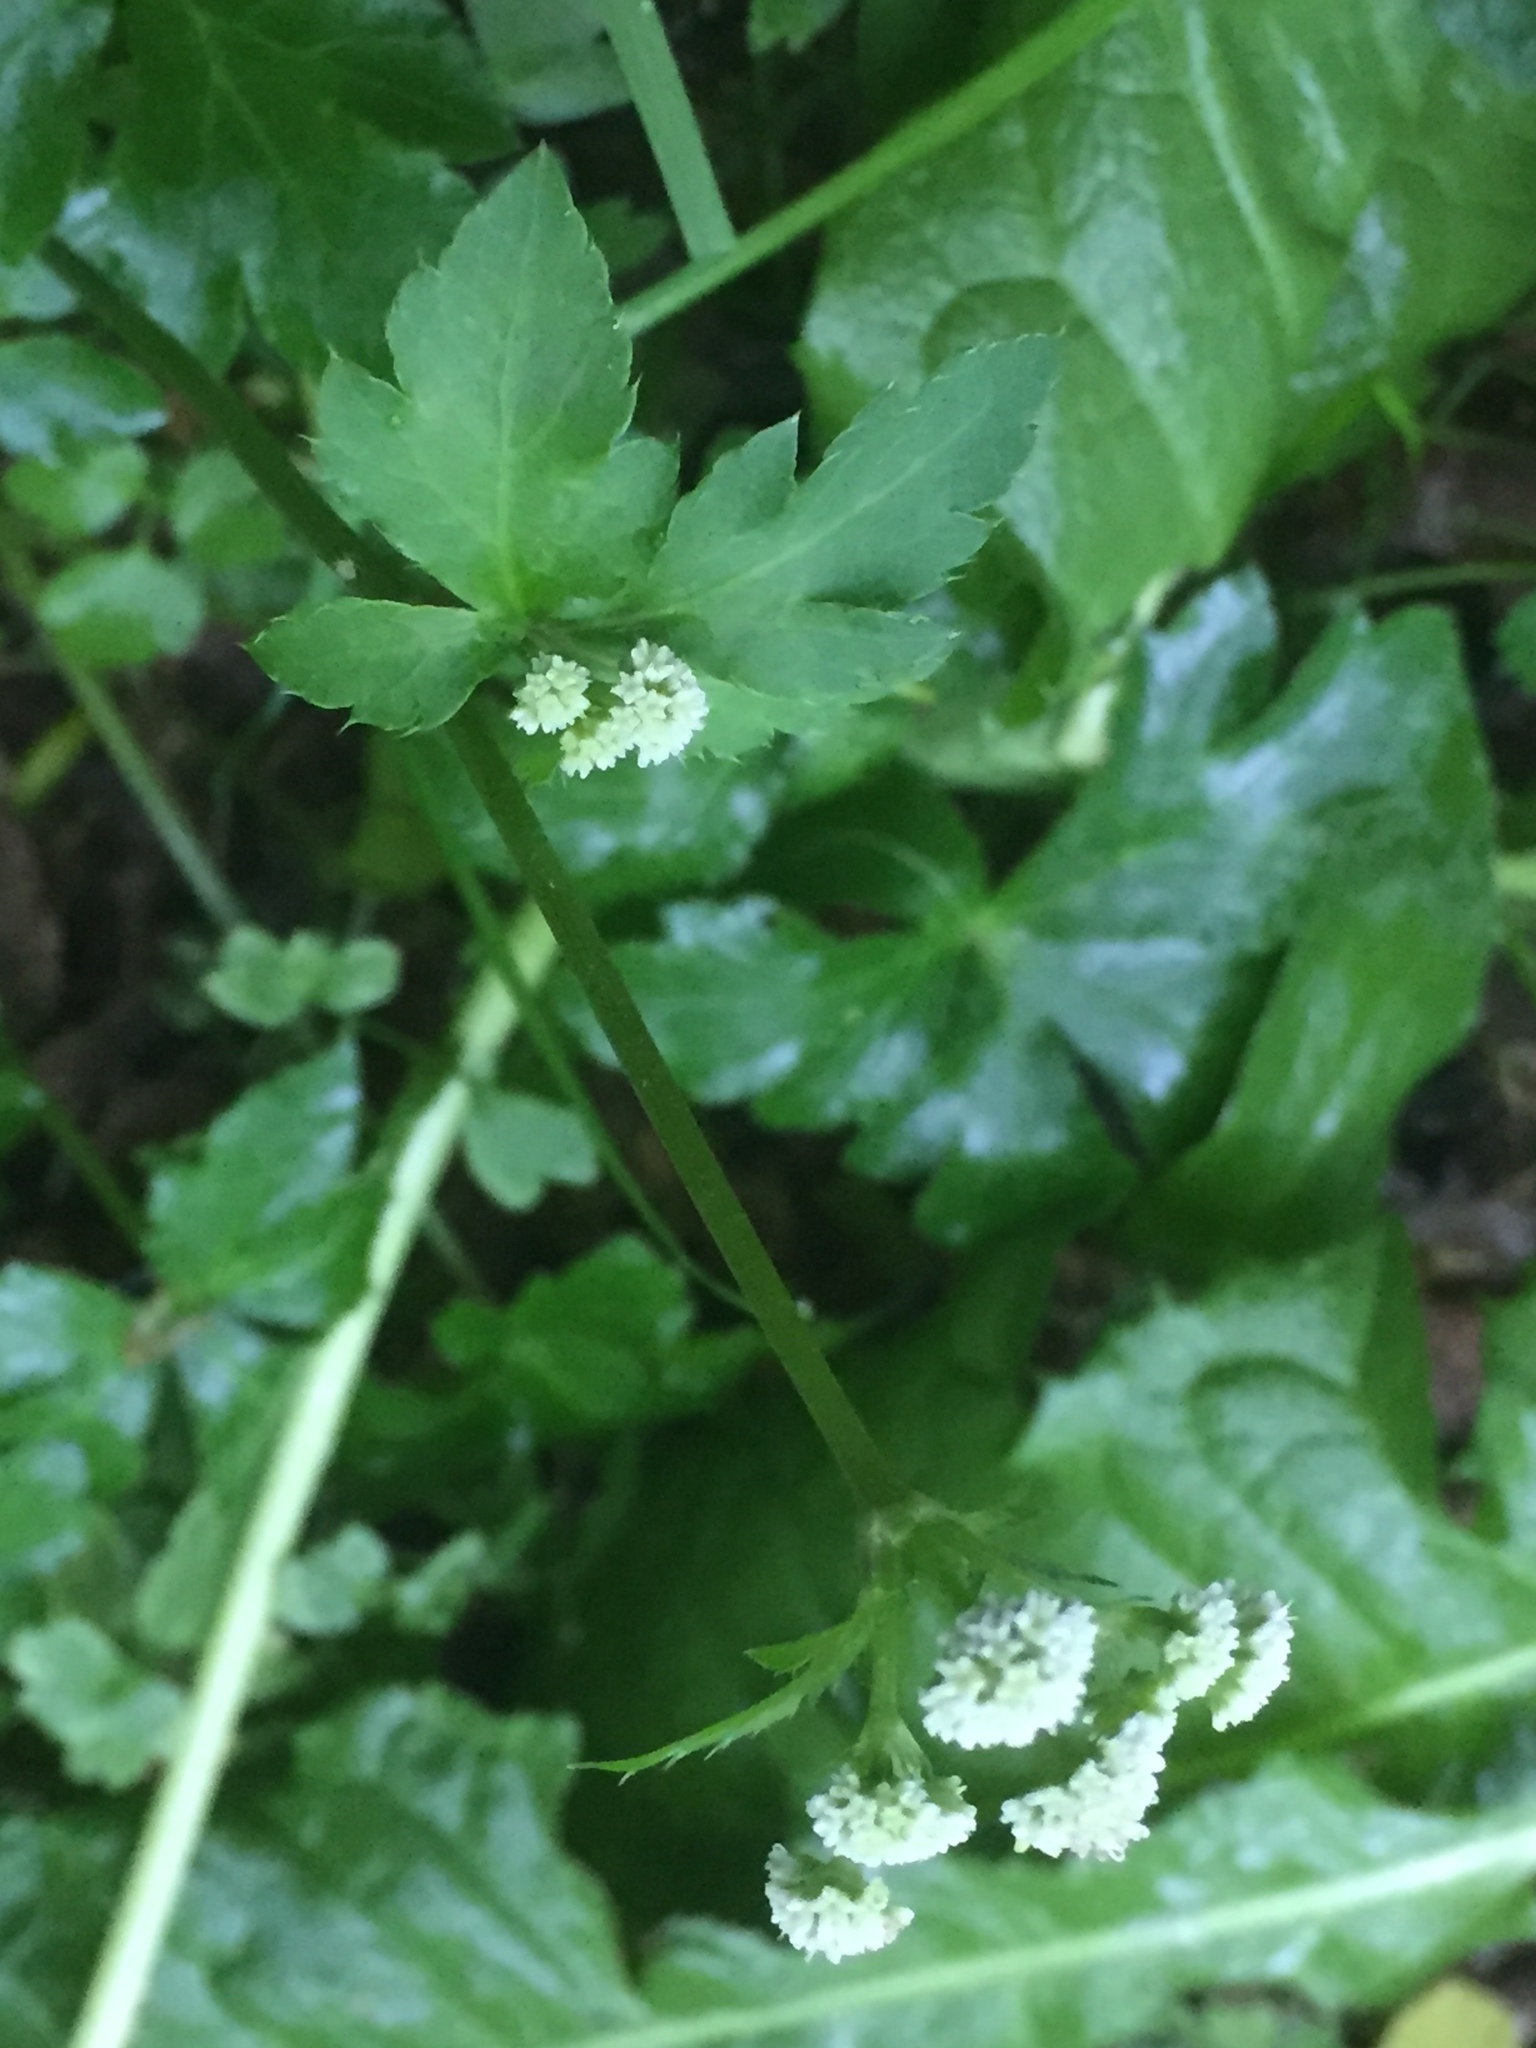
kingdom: Plantae
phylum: Tracheophyta
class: Magnoliopsida
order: Apiales
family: Apiaceae
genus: Sanicula
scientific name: Sanicula europaea
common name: Sanicle
